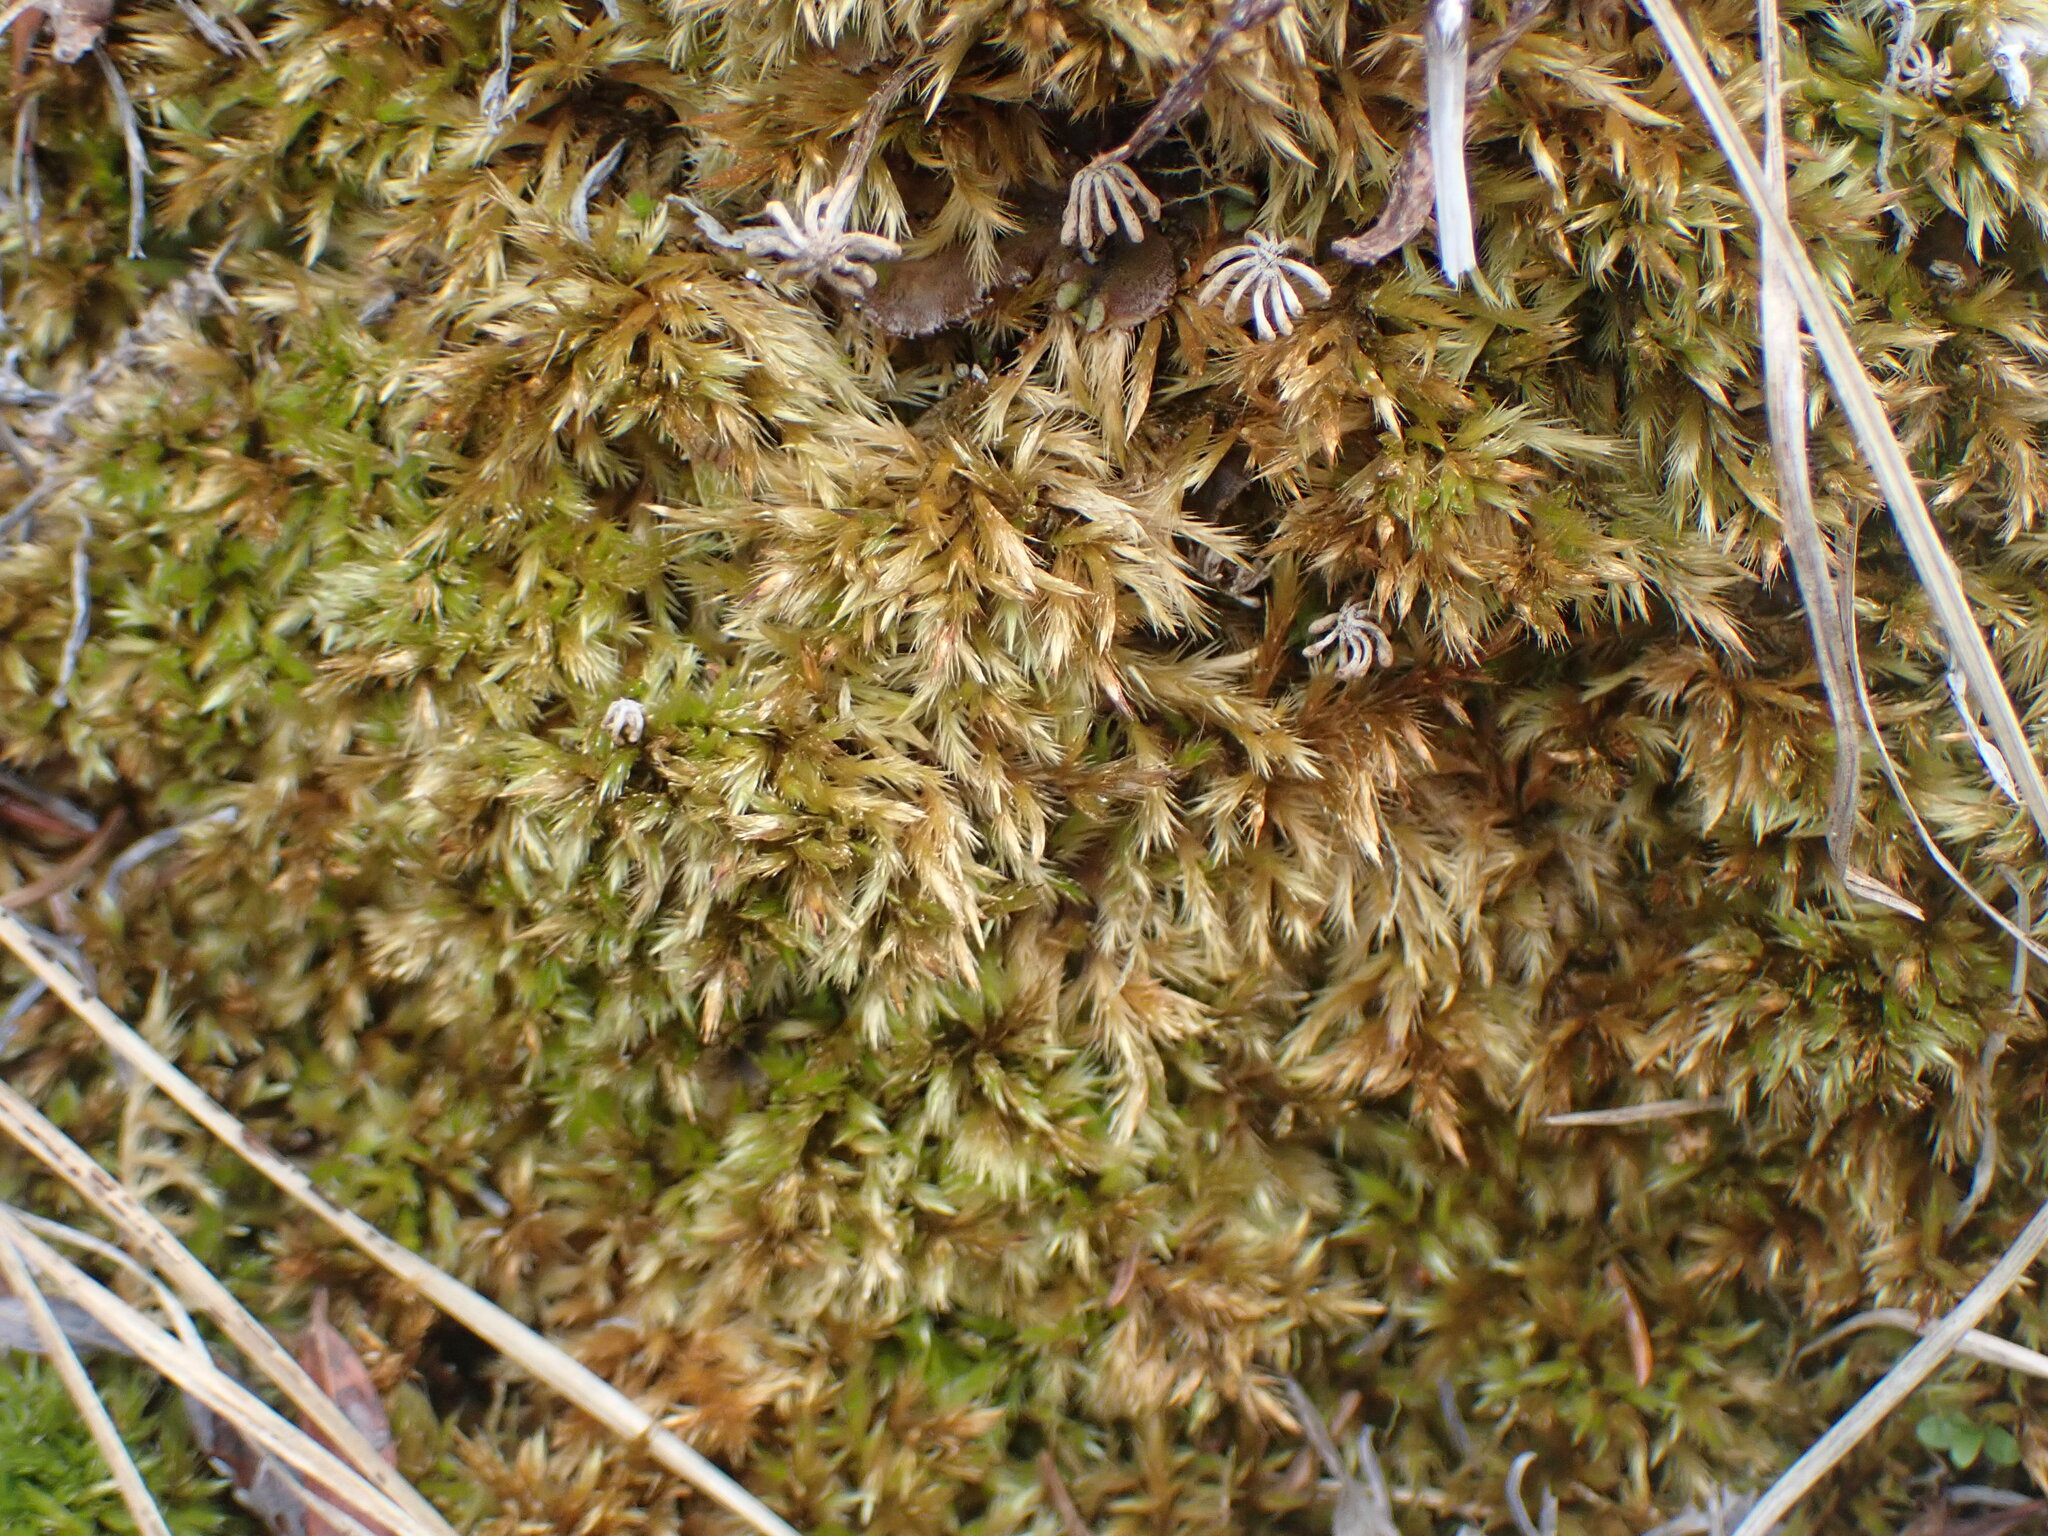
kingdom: Plantae
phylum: Bryophyta
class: Bryopsida
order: Hypnales
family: Amblystegiaceae
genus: Tomentypnum
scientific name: Tomentypnum nitens
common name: Golden fuzzy fen moss
